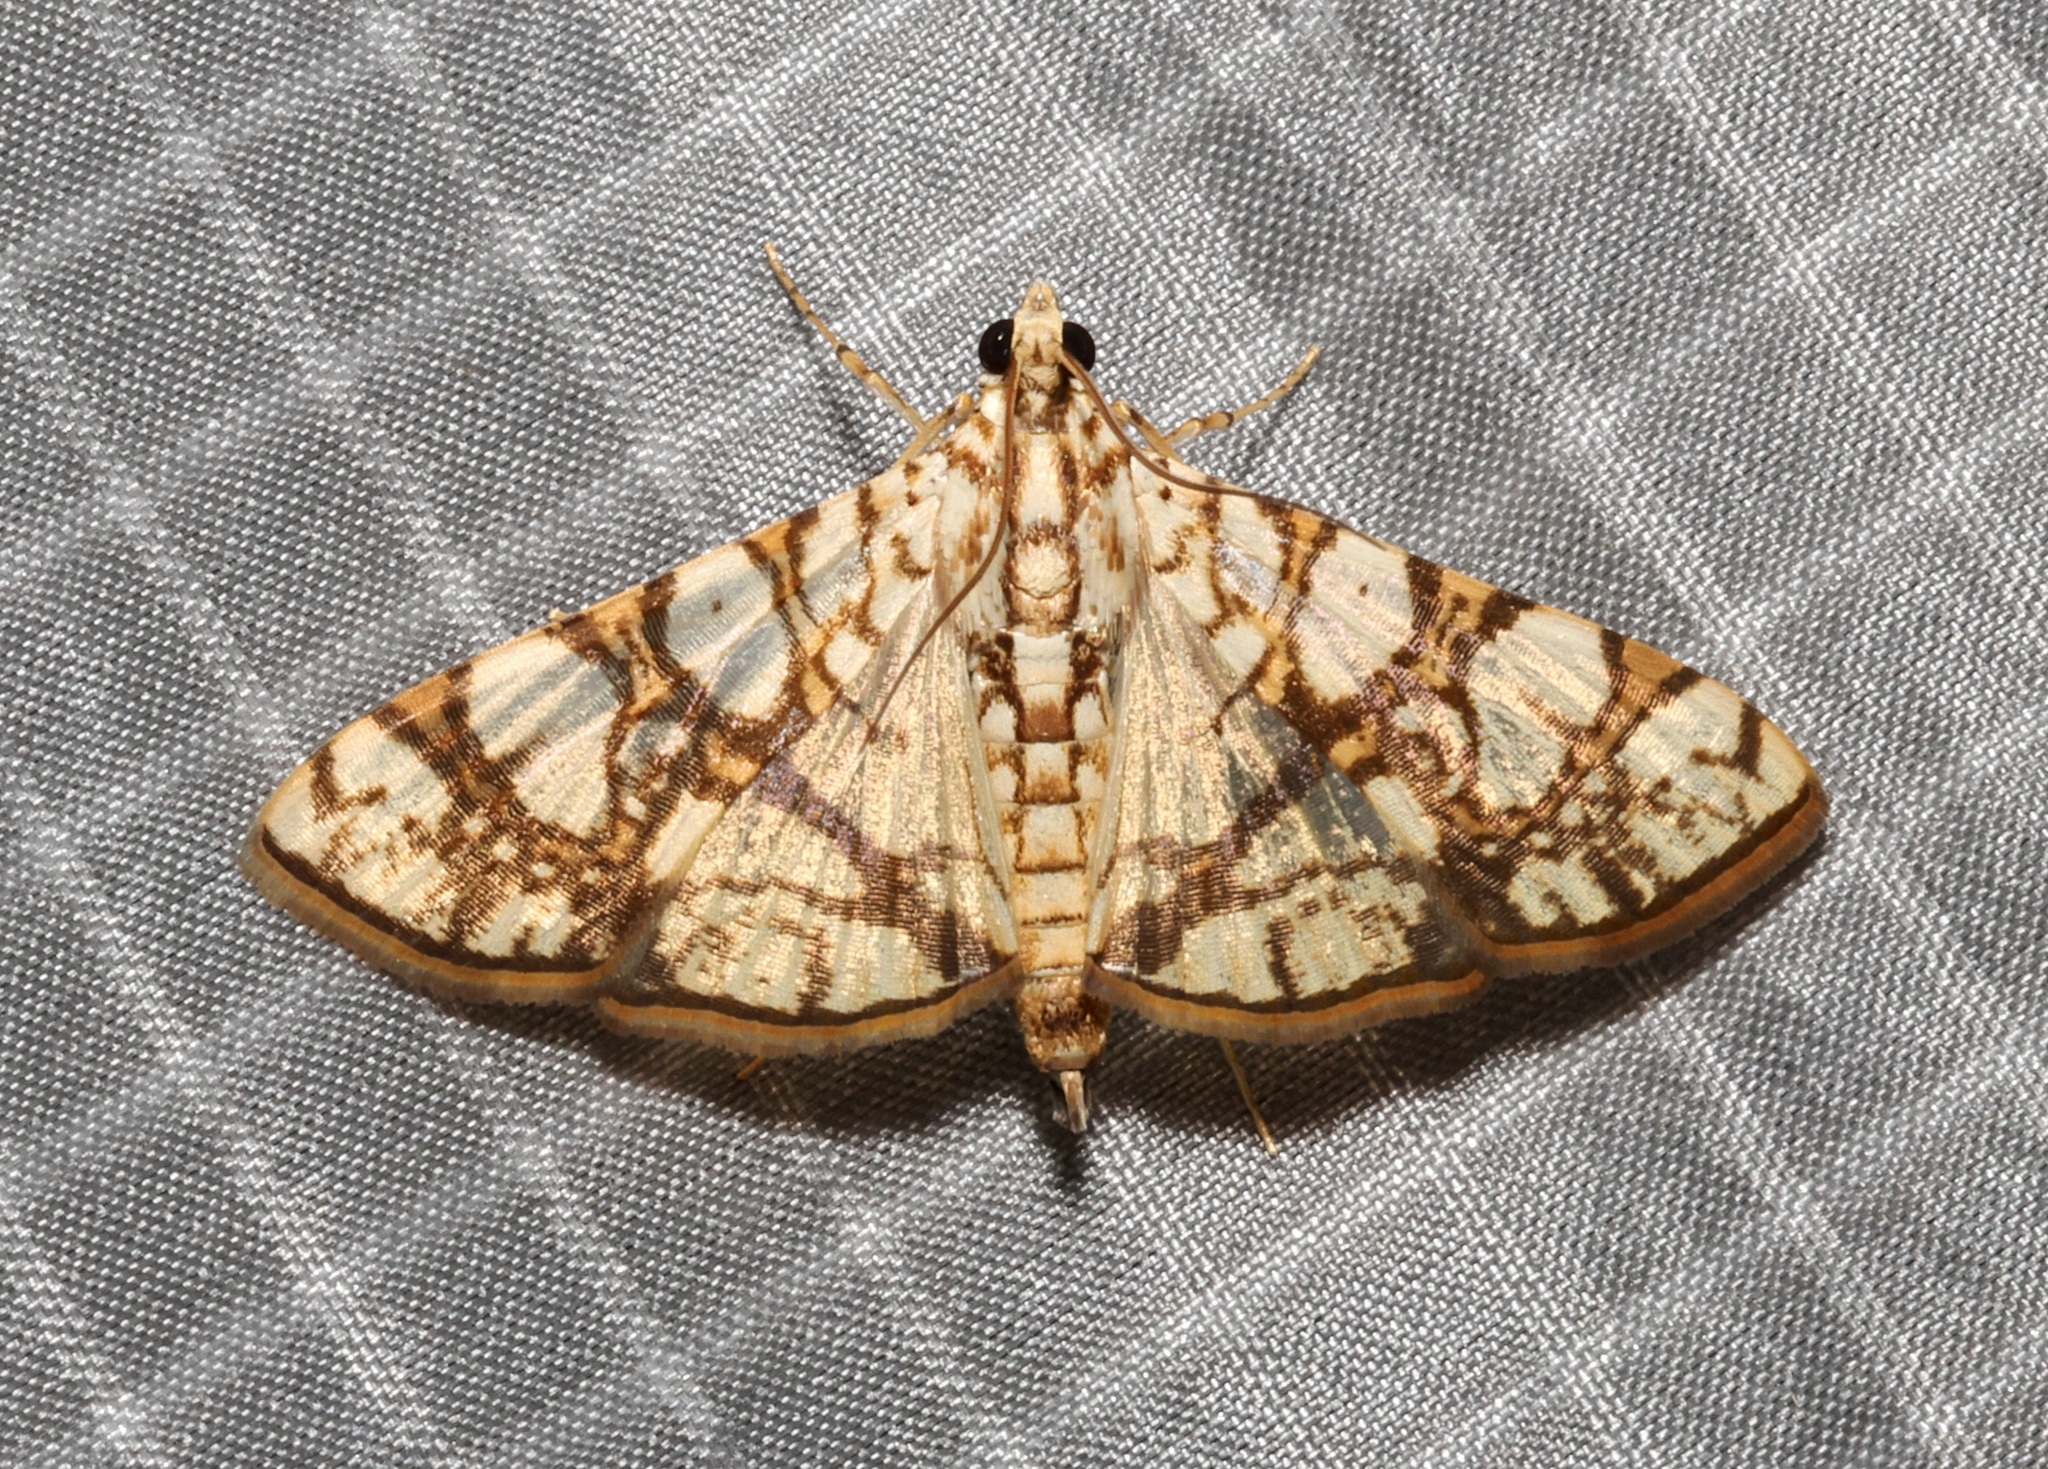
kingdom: Animalia
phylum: Arthropoda
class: Insecta
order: Lepidoptera
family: Crambidae
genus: Glyphodes
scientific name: Glyphodes caesalis
